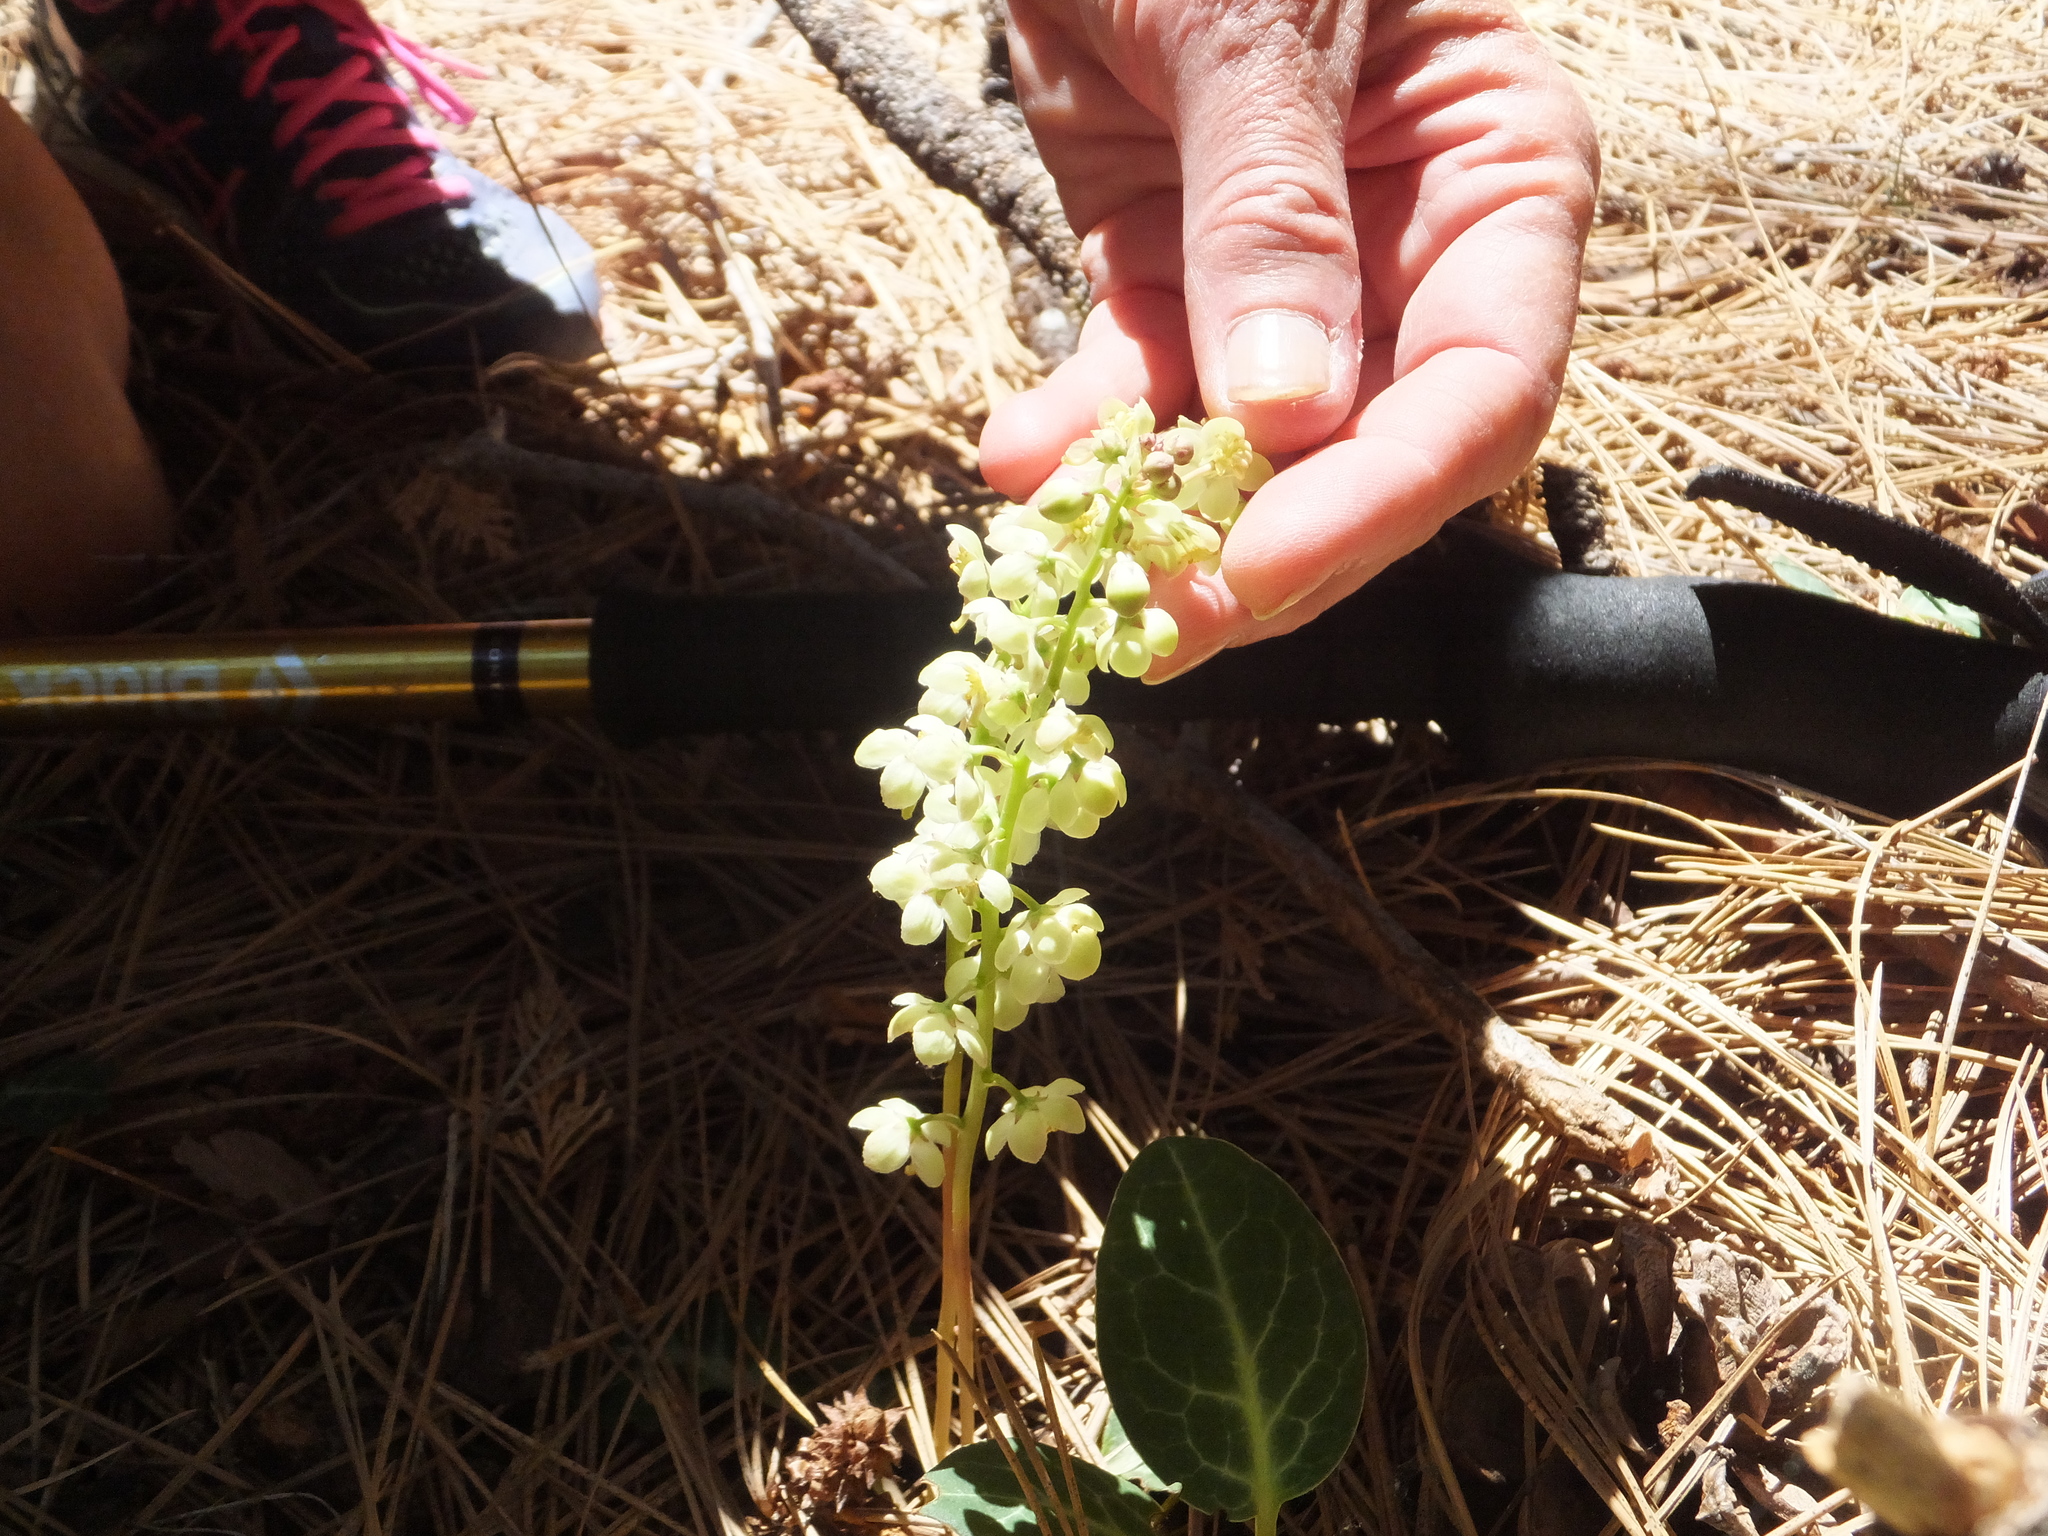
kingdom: Plantae
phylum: Tracheophyta
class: Magnoliopsida
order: Ericales
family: Ericaceae
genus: Pyrola
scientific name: Pyrola picta
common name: White-vein wintergreen
